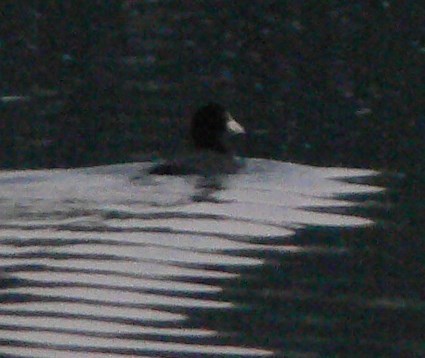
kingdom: Animalia
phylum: Chordata
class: Aves
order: Gruiformes
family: Rallidae
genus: Fulica
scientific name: Fulica atra
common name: Eurasian coot
